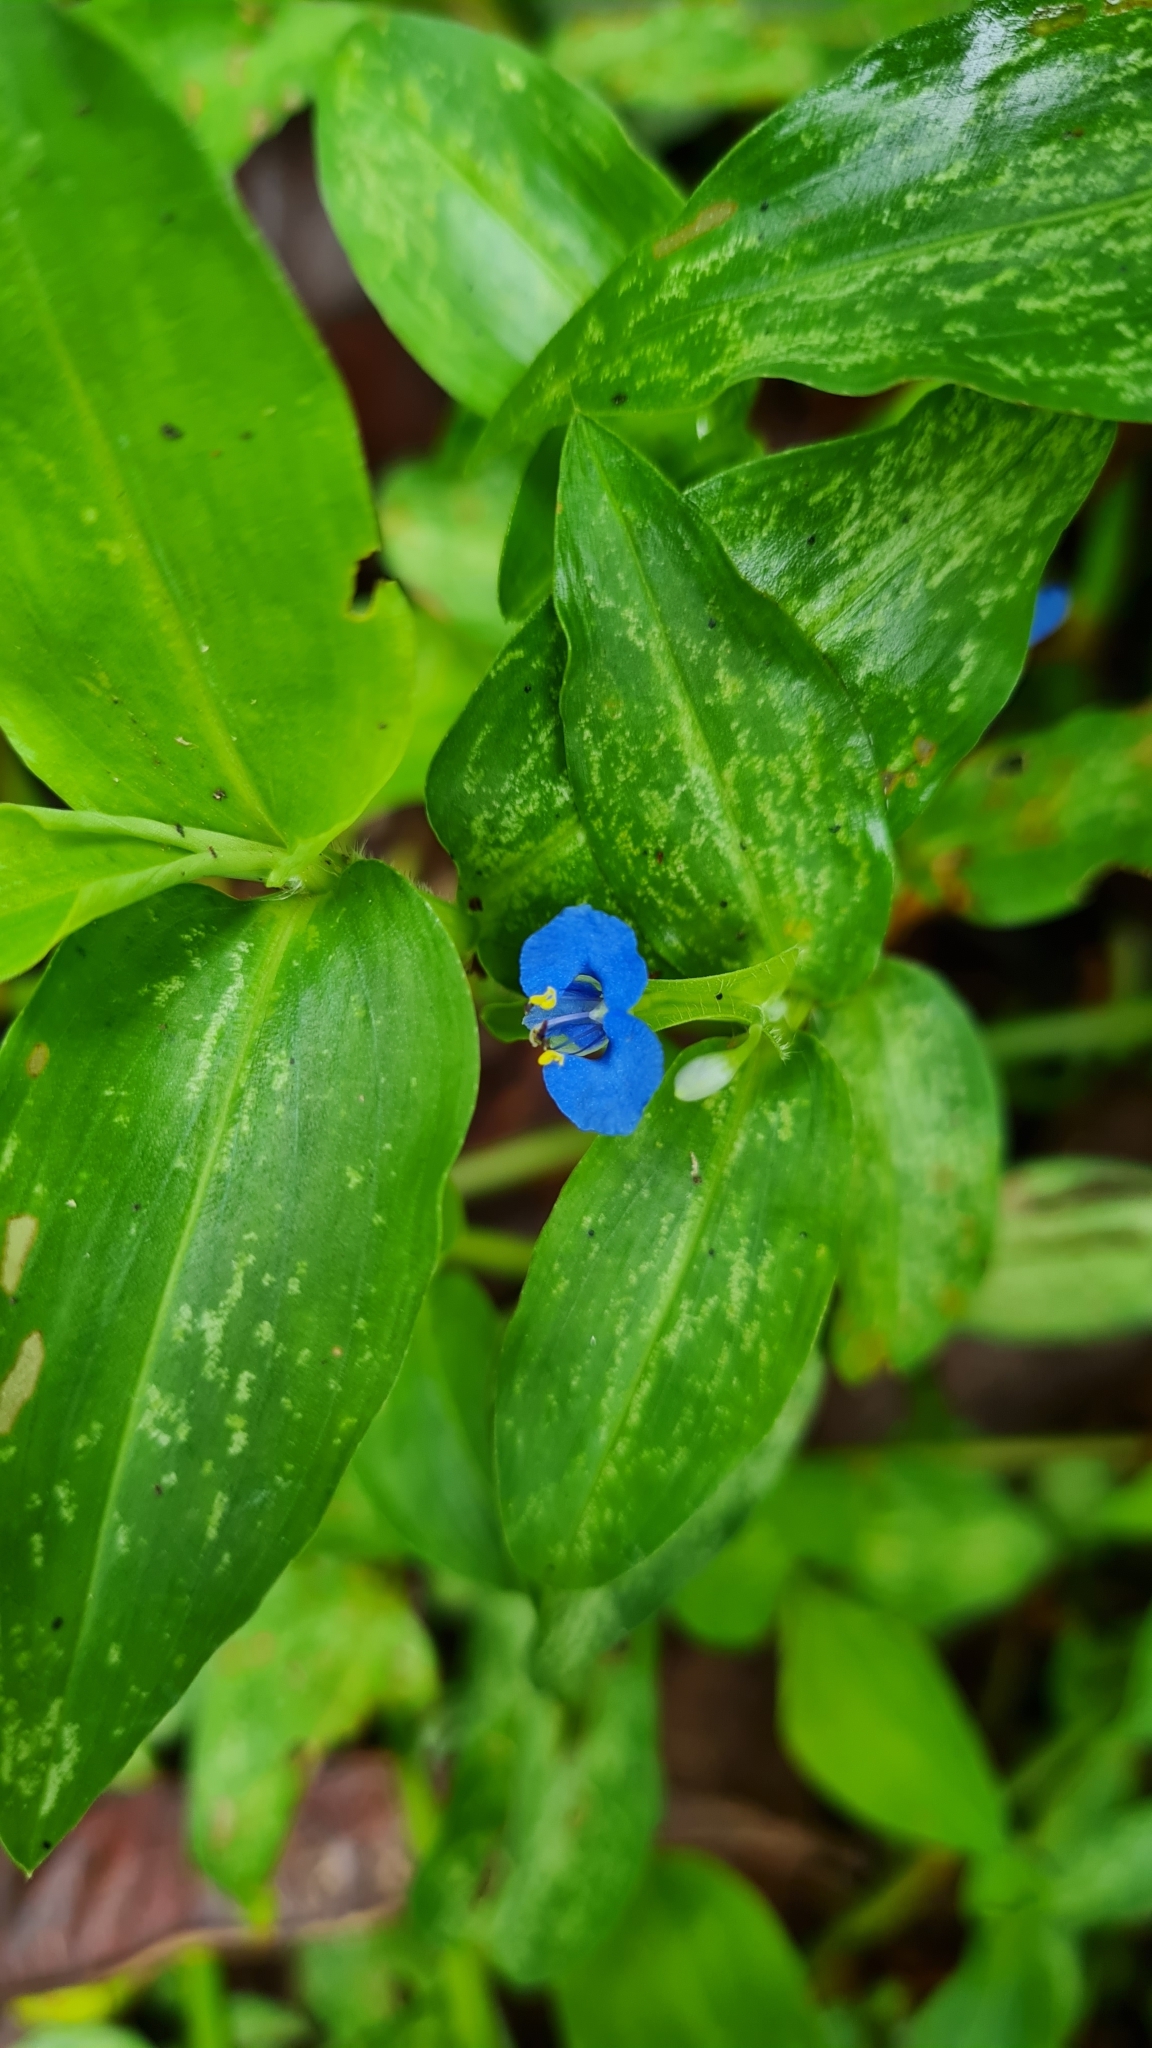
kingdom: Plantae
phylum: Tracheophyta
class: Liliopsida
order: Commelinales
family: Commelinaceae
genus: Commelina
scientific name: Commelina diffusa
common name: Climbing dayflower
